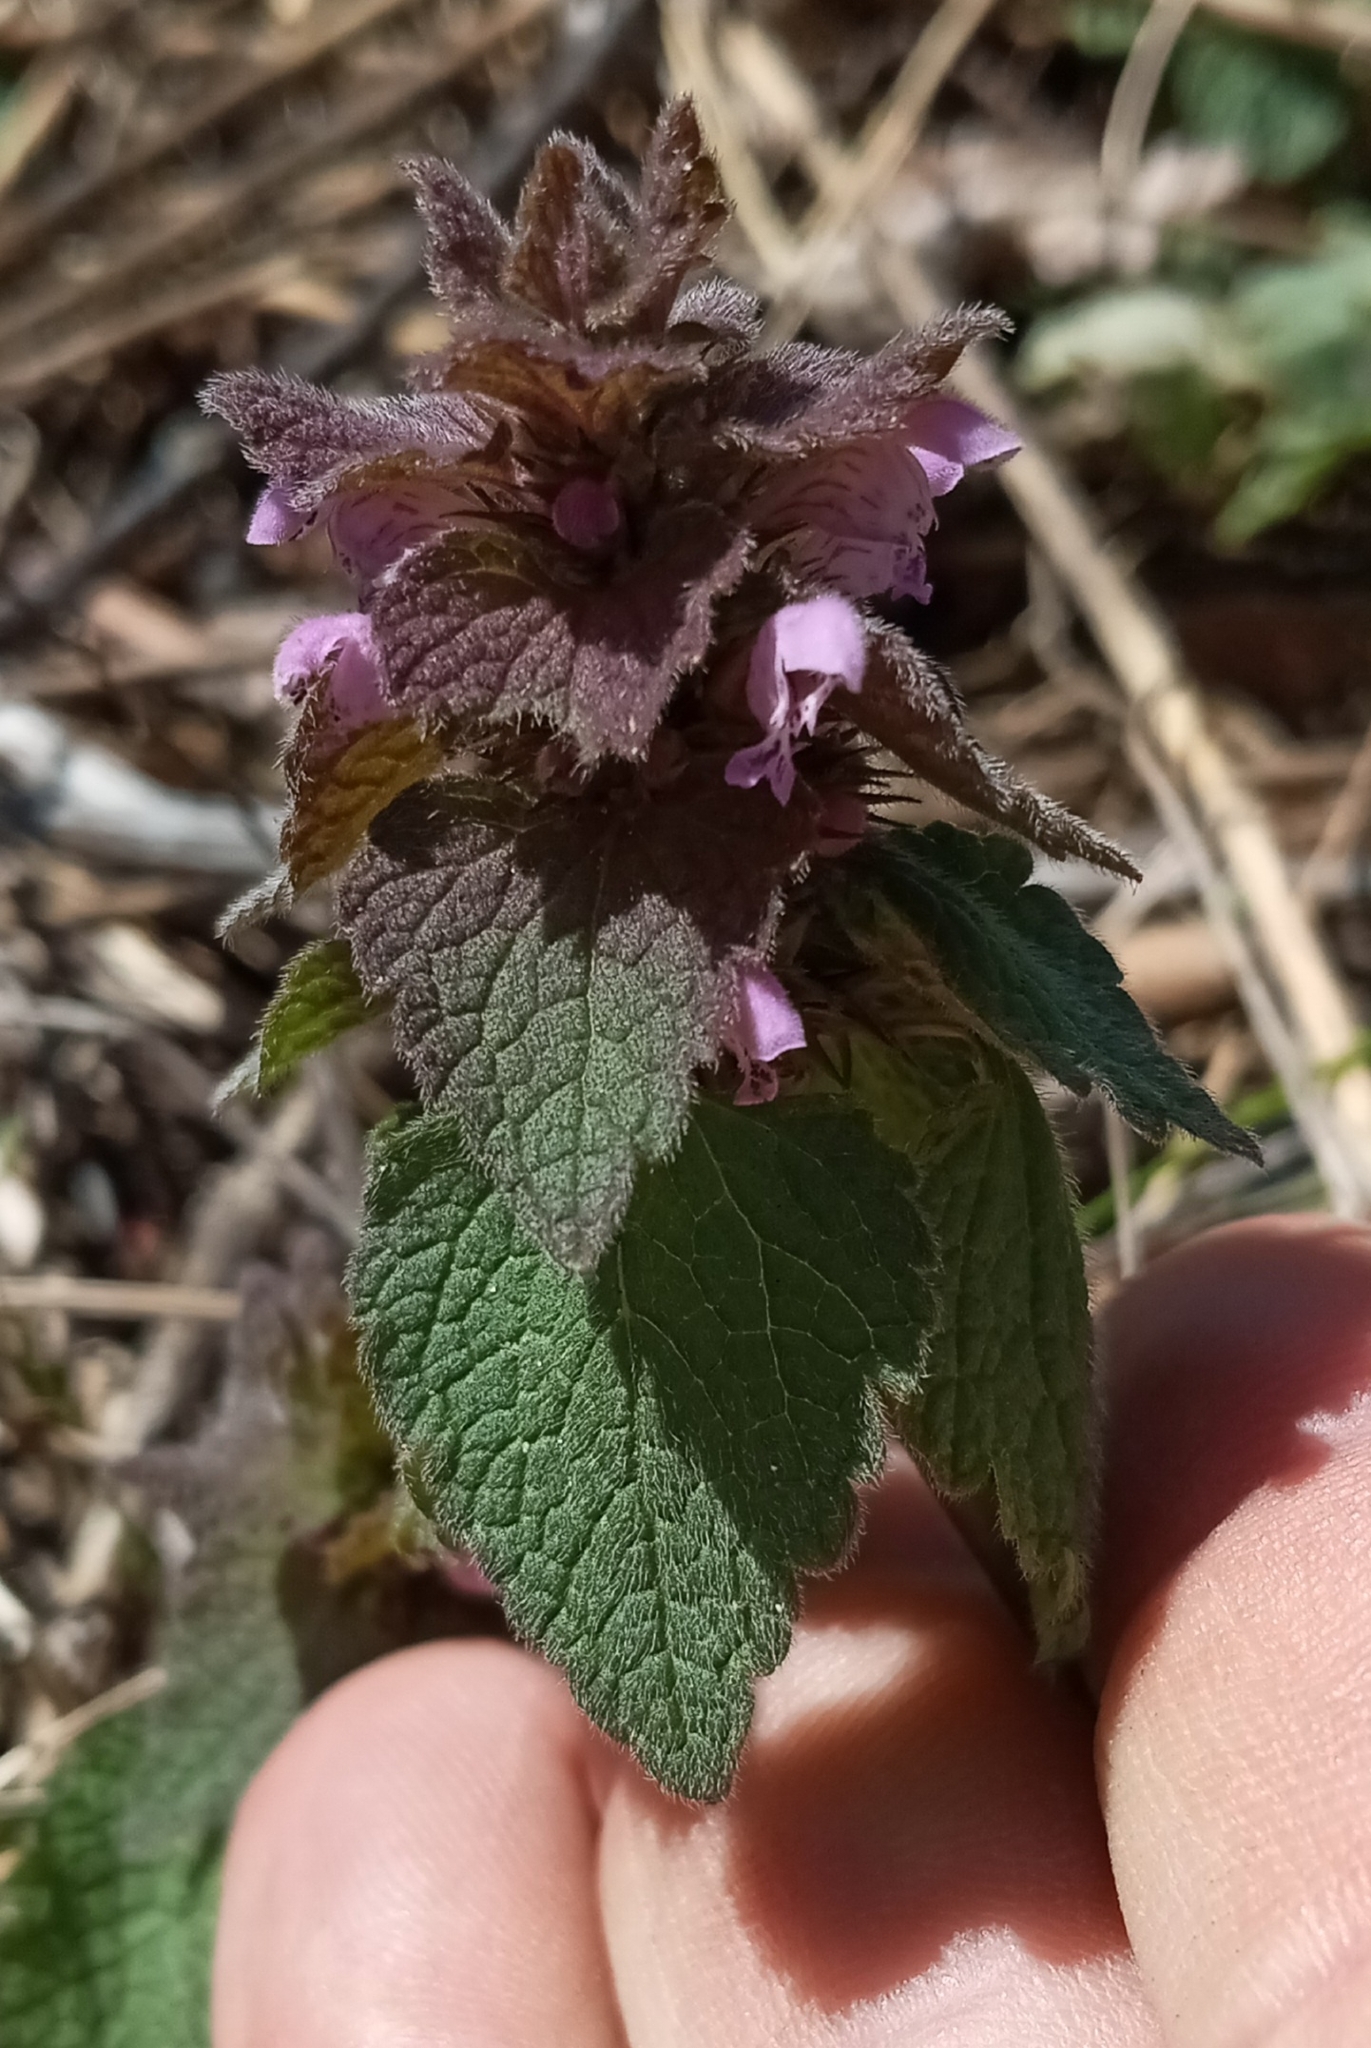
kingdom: Plantae
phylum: Tracheophyta
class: Magnoliopsida
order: Lamiales
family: Lamiaceae
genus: Lamium
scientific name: Lamium purpureum
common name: Red dead-nettle
